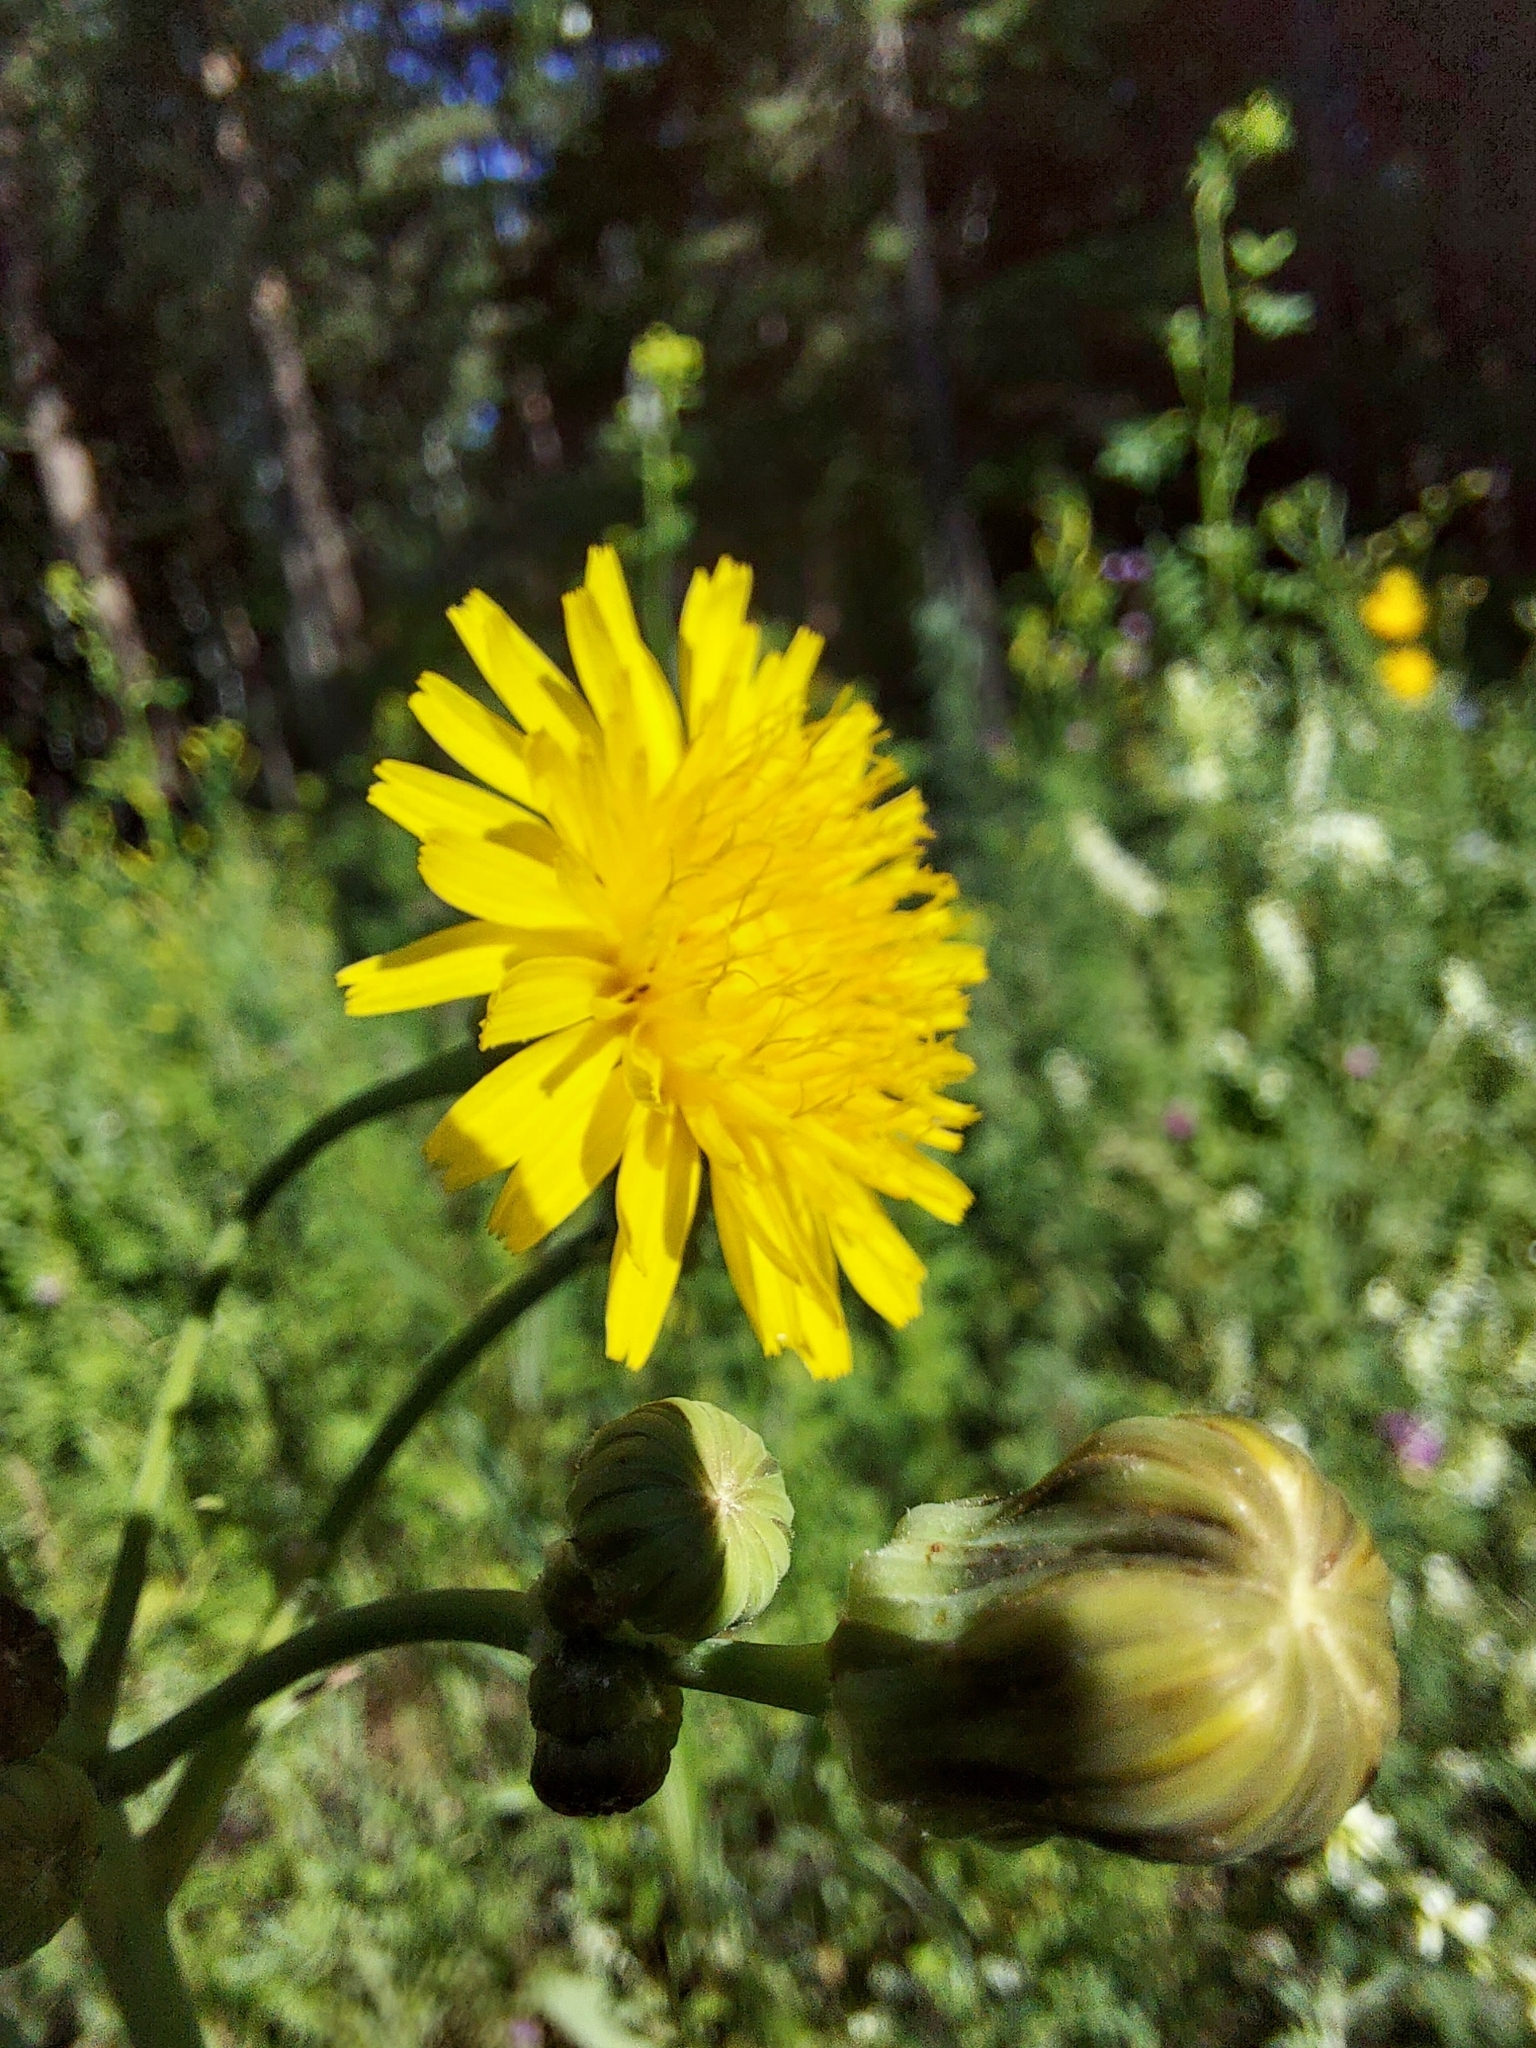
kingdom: Plantae
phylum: Tracheophyta
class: Magnoliopsida
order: Asterales
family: Asteraceae
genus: Sonchus
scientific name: Sonchus arvensis
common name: Perennial sow-thistle
